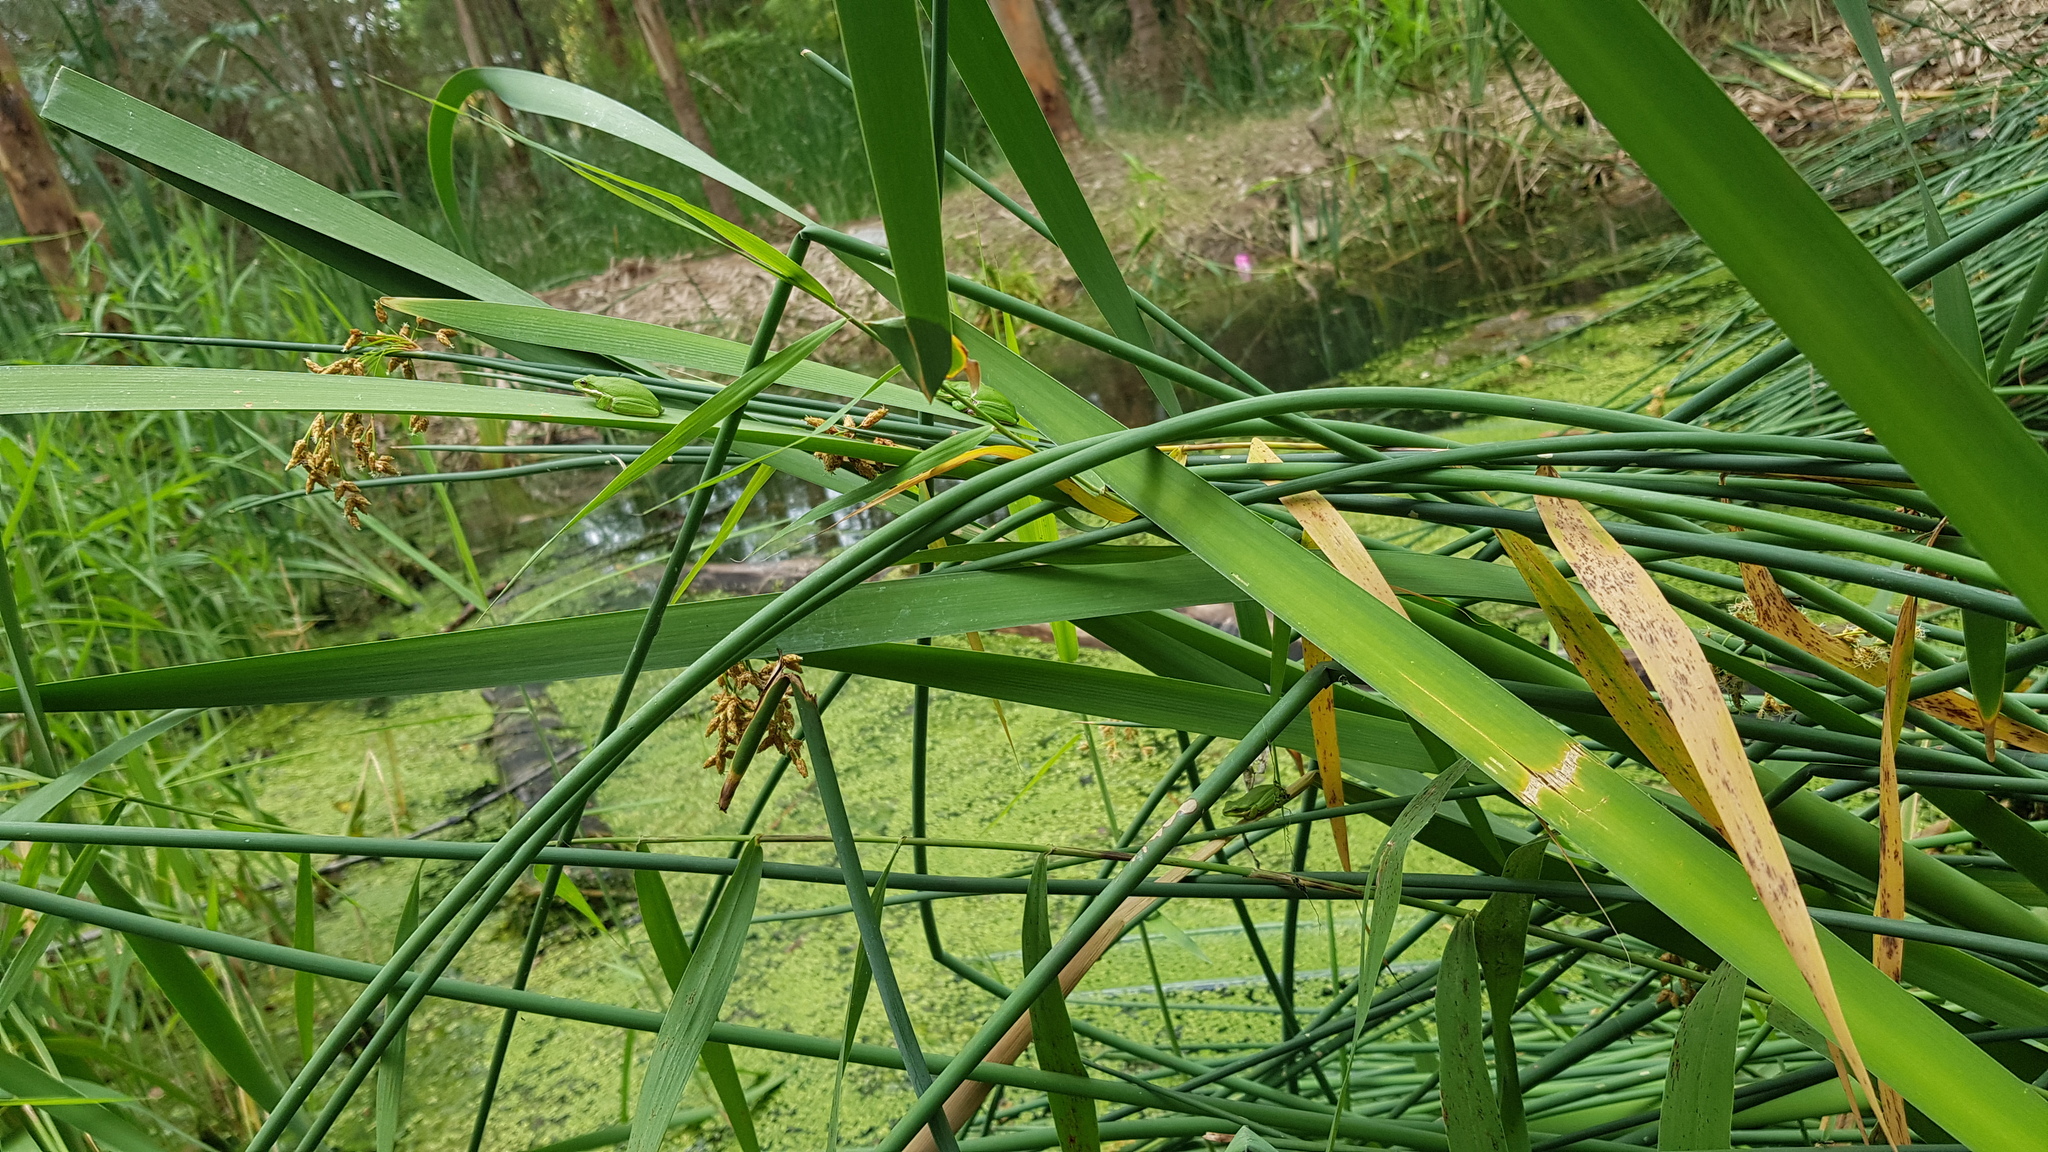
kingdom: Animalia
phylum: Chordata
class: Amphibia
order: Anura
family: Pelodryadidae
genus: Litoria
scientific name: Litoria fallax
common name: Eastern dwarf treefrog
